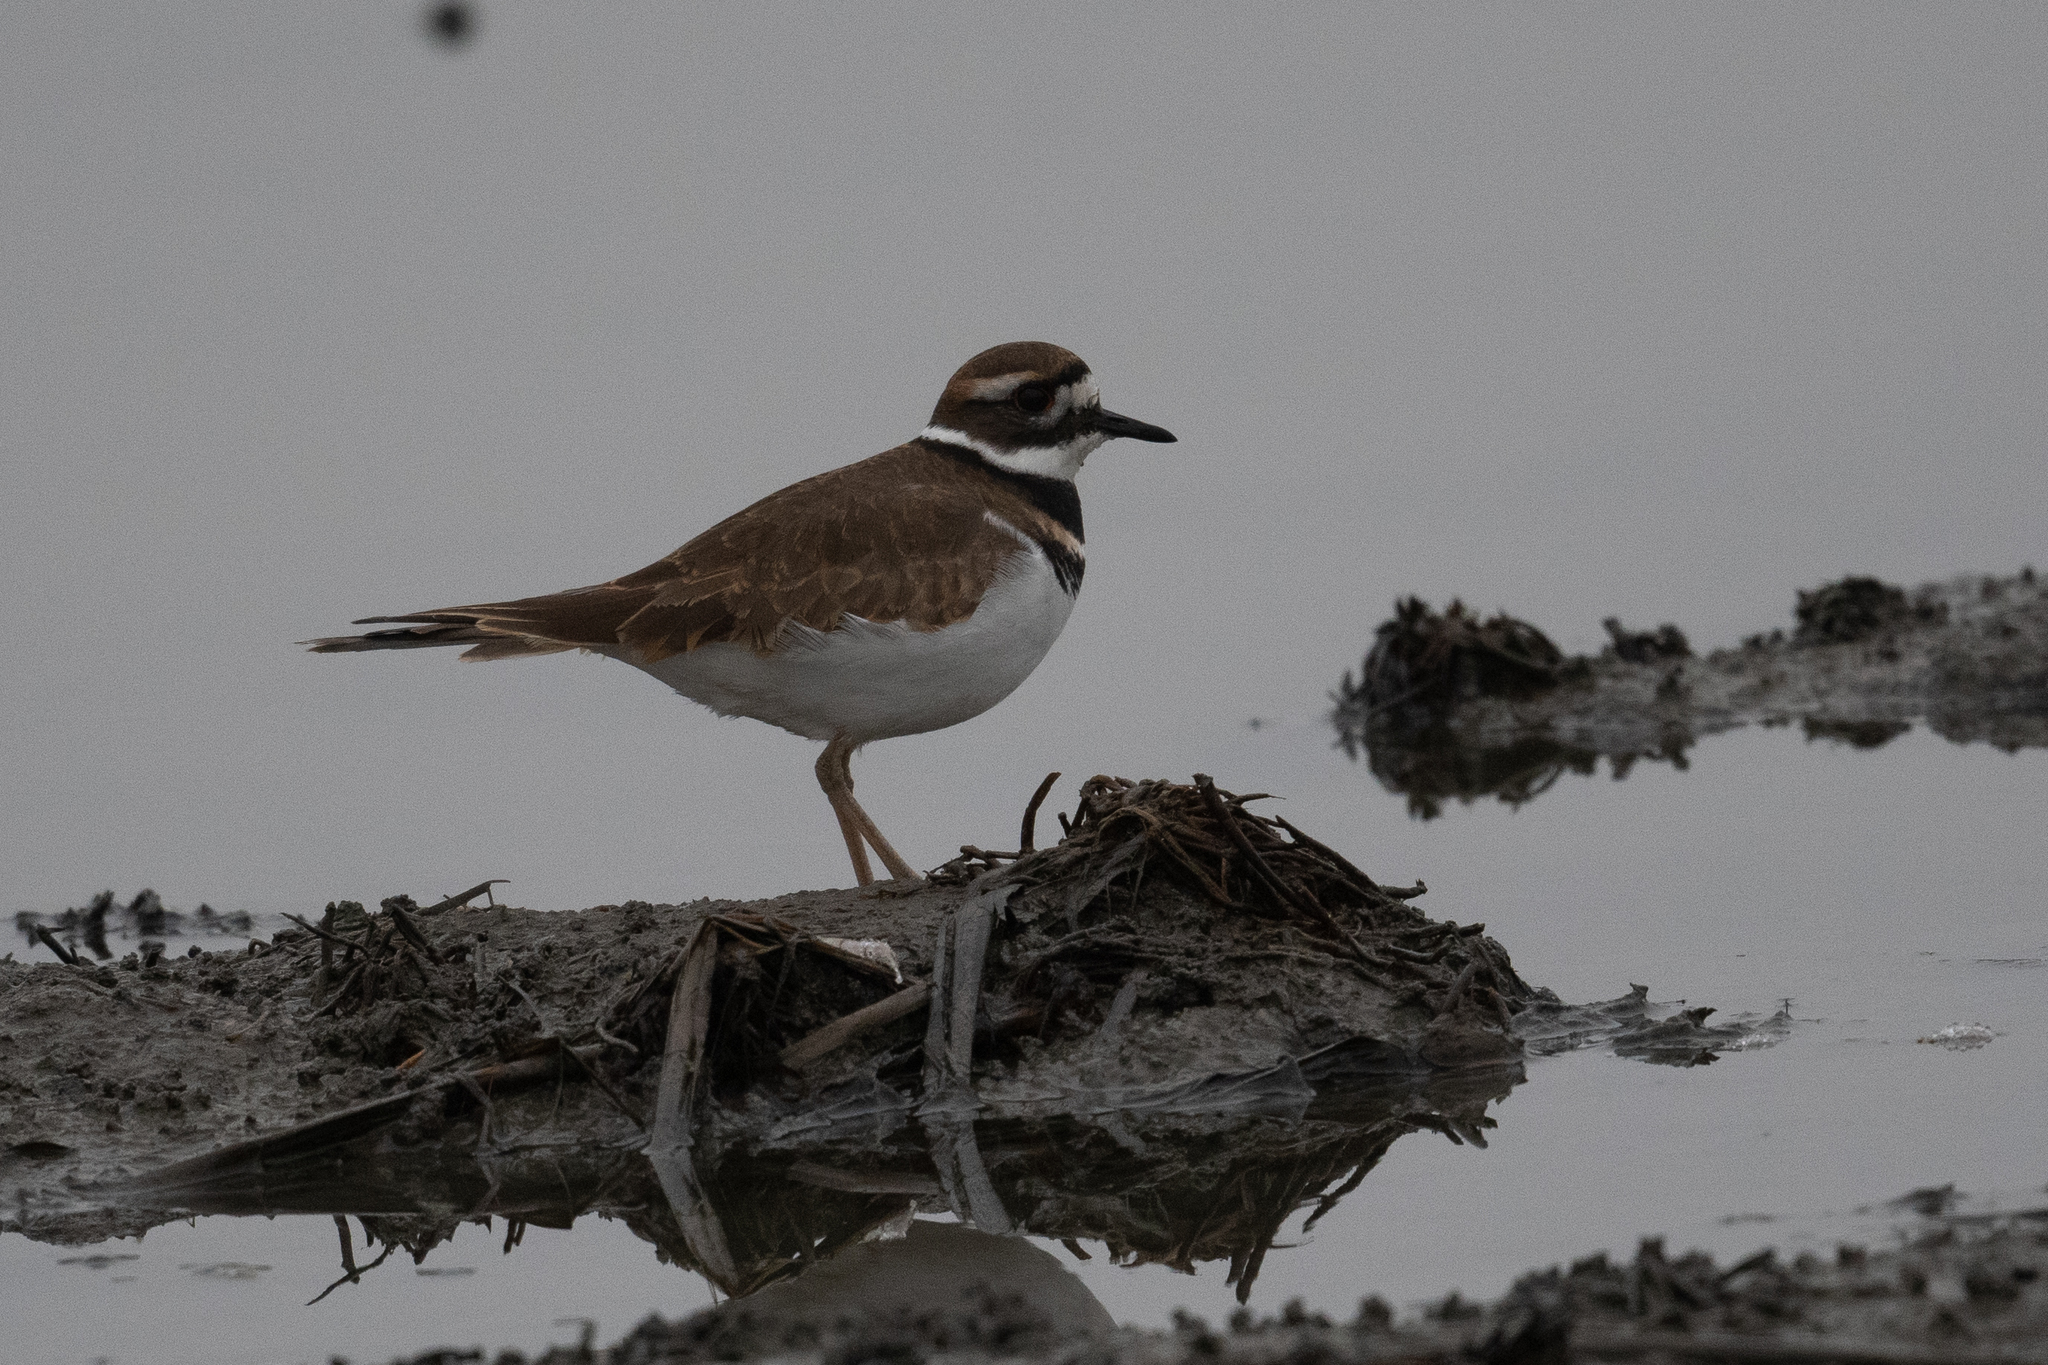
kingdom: Animalia
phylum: Chordata
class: Aves
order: Charadriiformes
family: Charadriidae
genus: Charadrius
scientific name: Charadrius vociferus
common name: Killdeer
